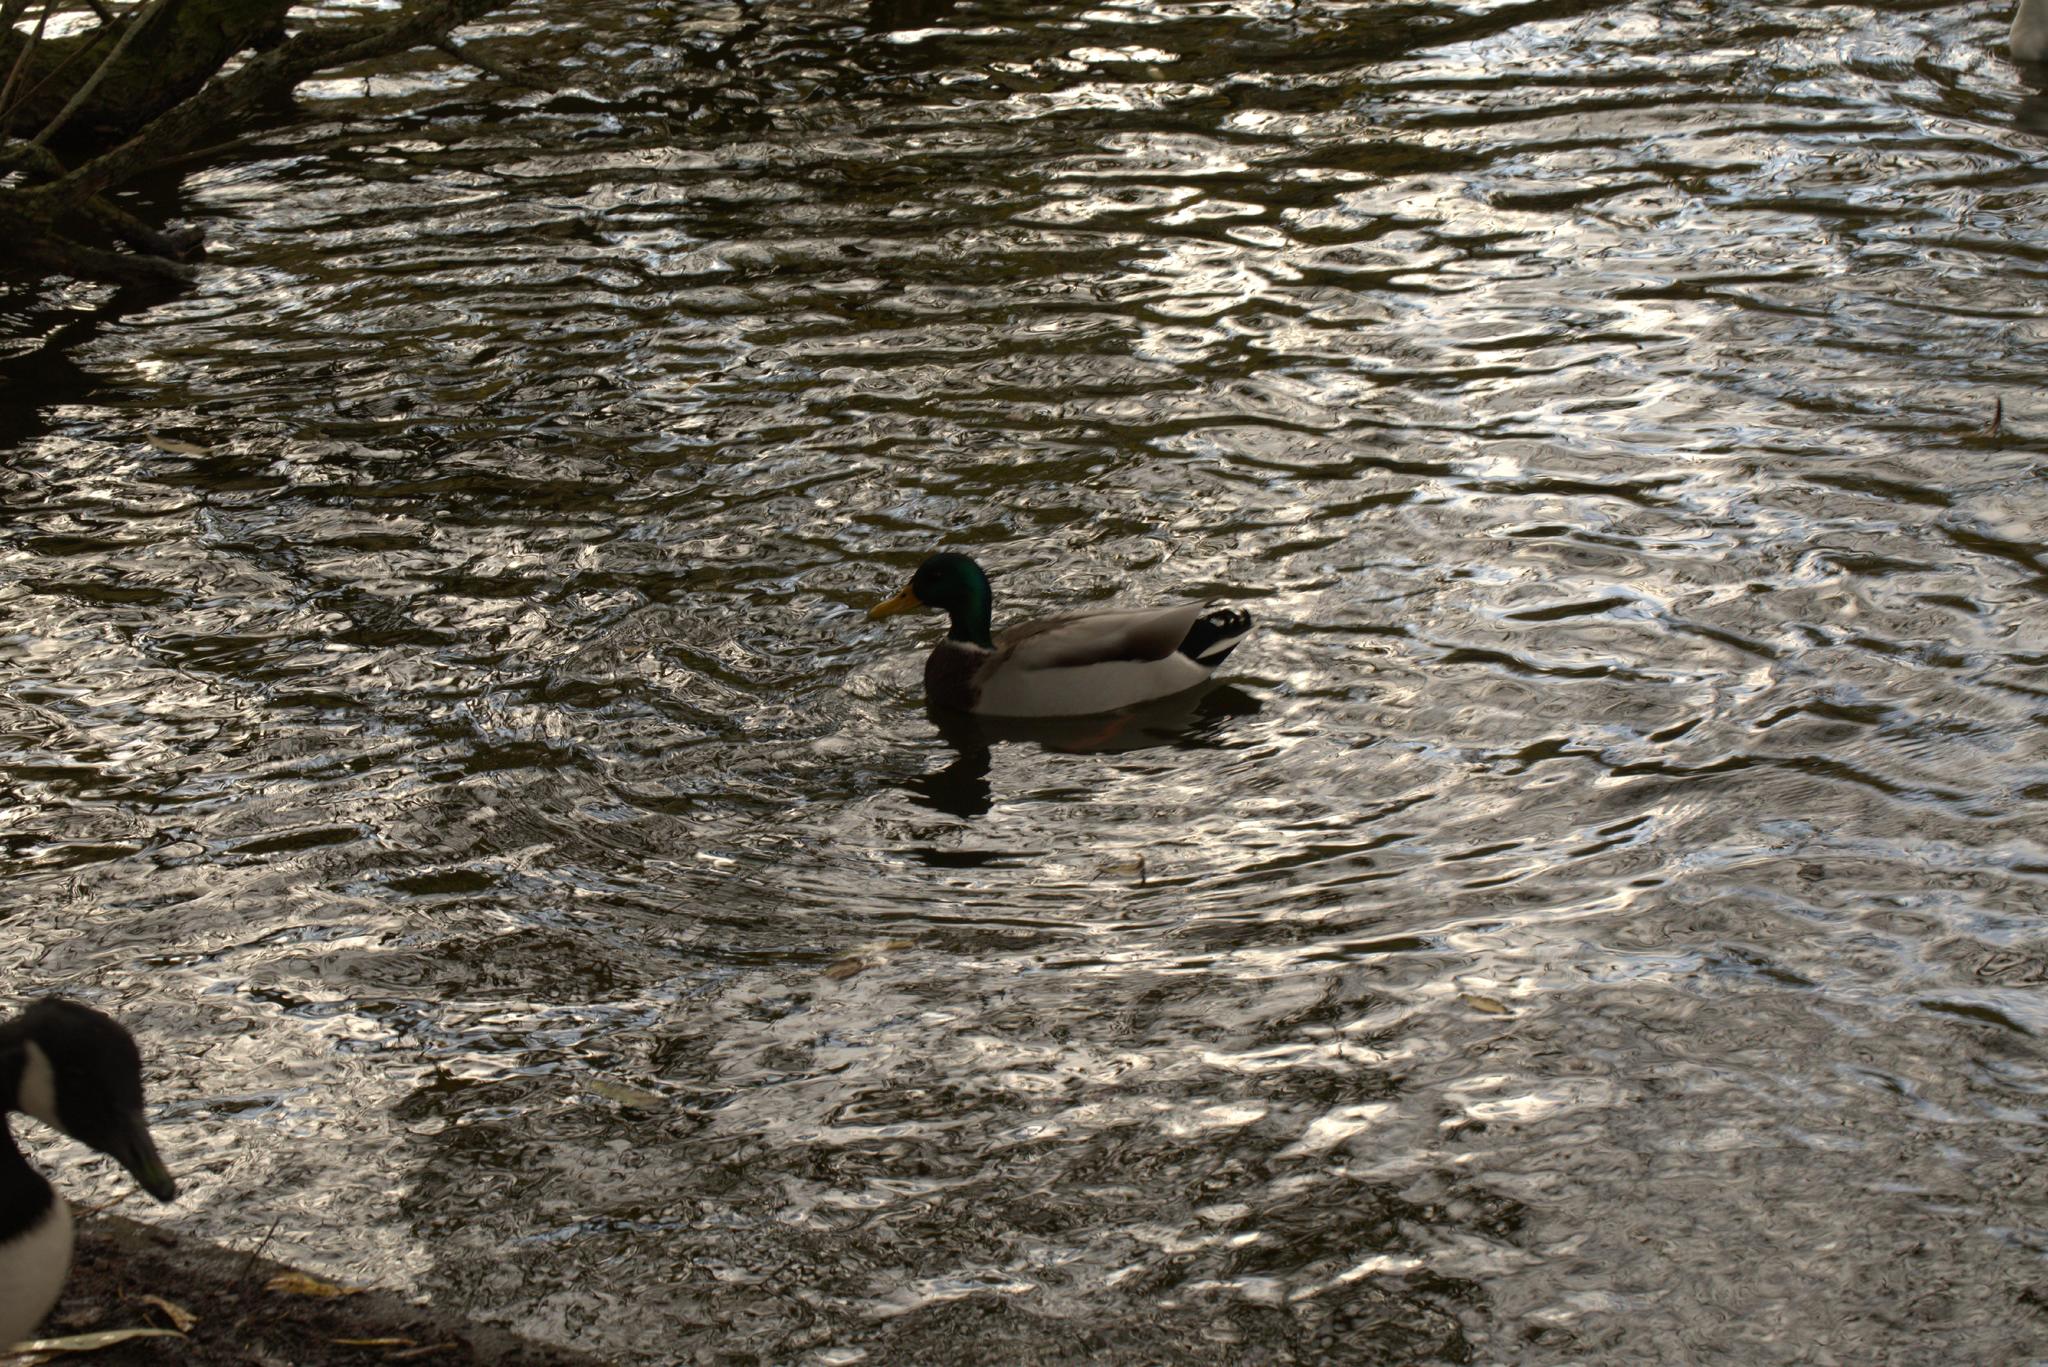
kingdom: Animalia
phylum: Chordata
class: Aves
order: Anseriformes
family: Anatidae
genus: Anas
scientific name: Anas platyrhynchos
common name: Mallard
